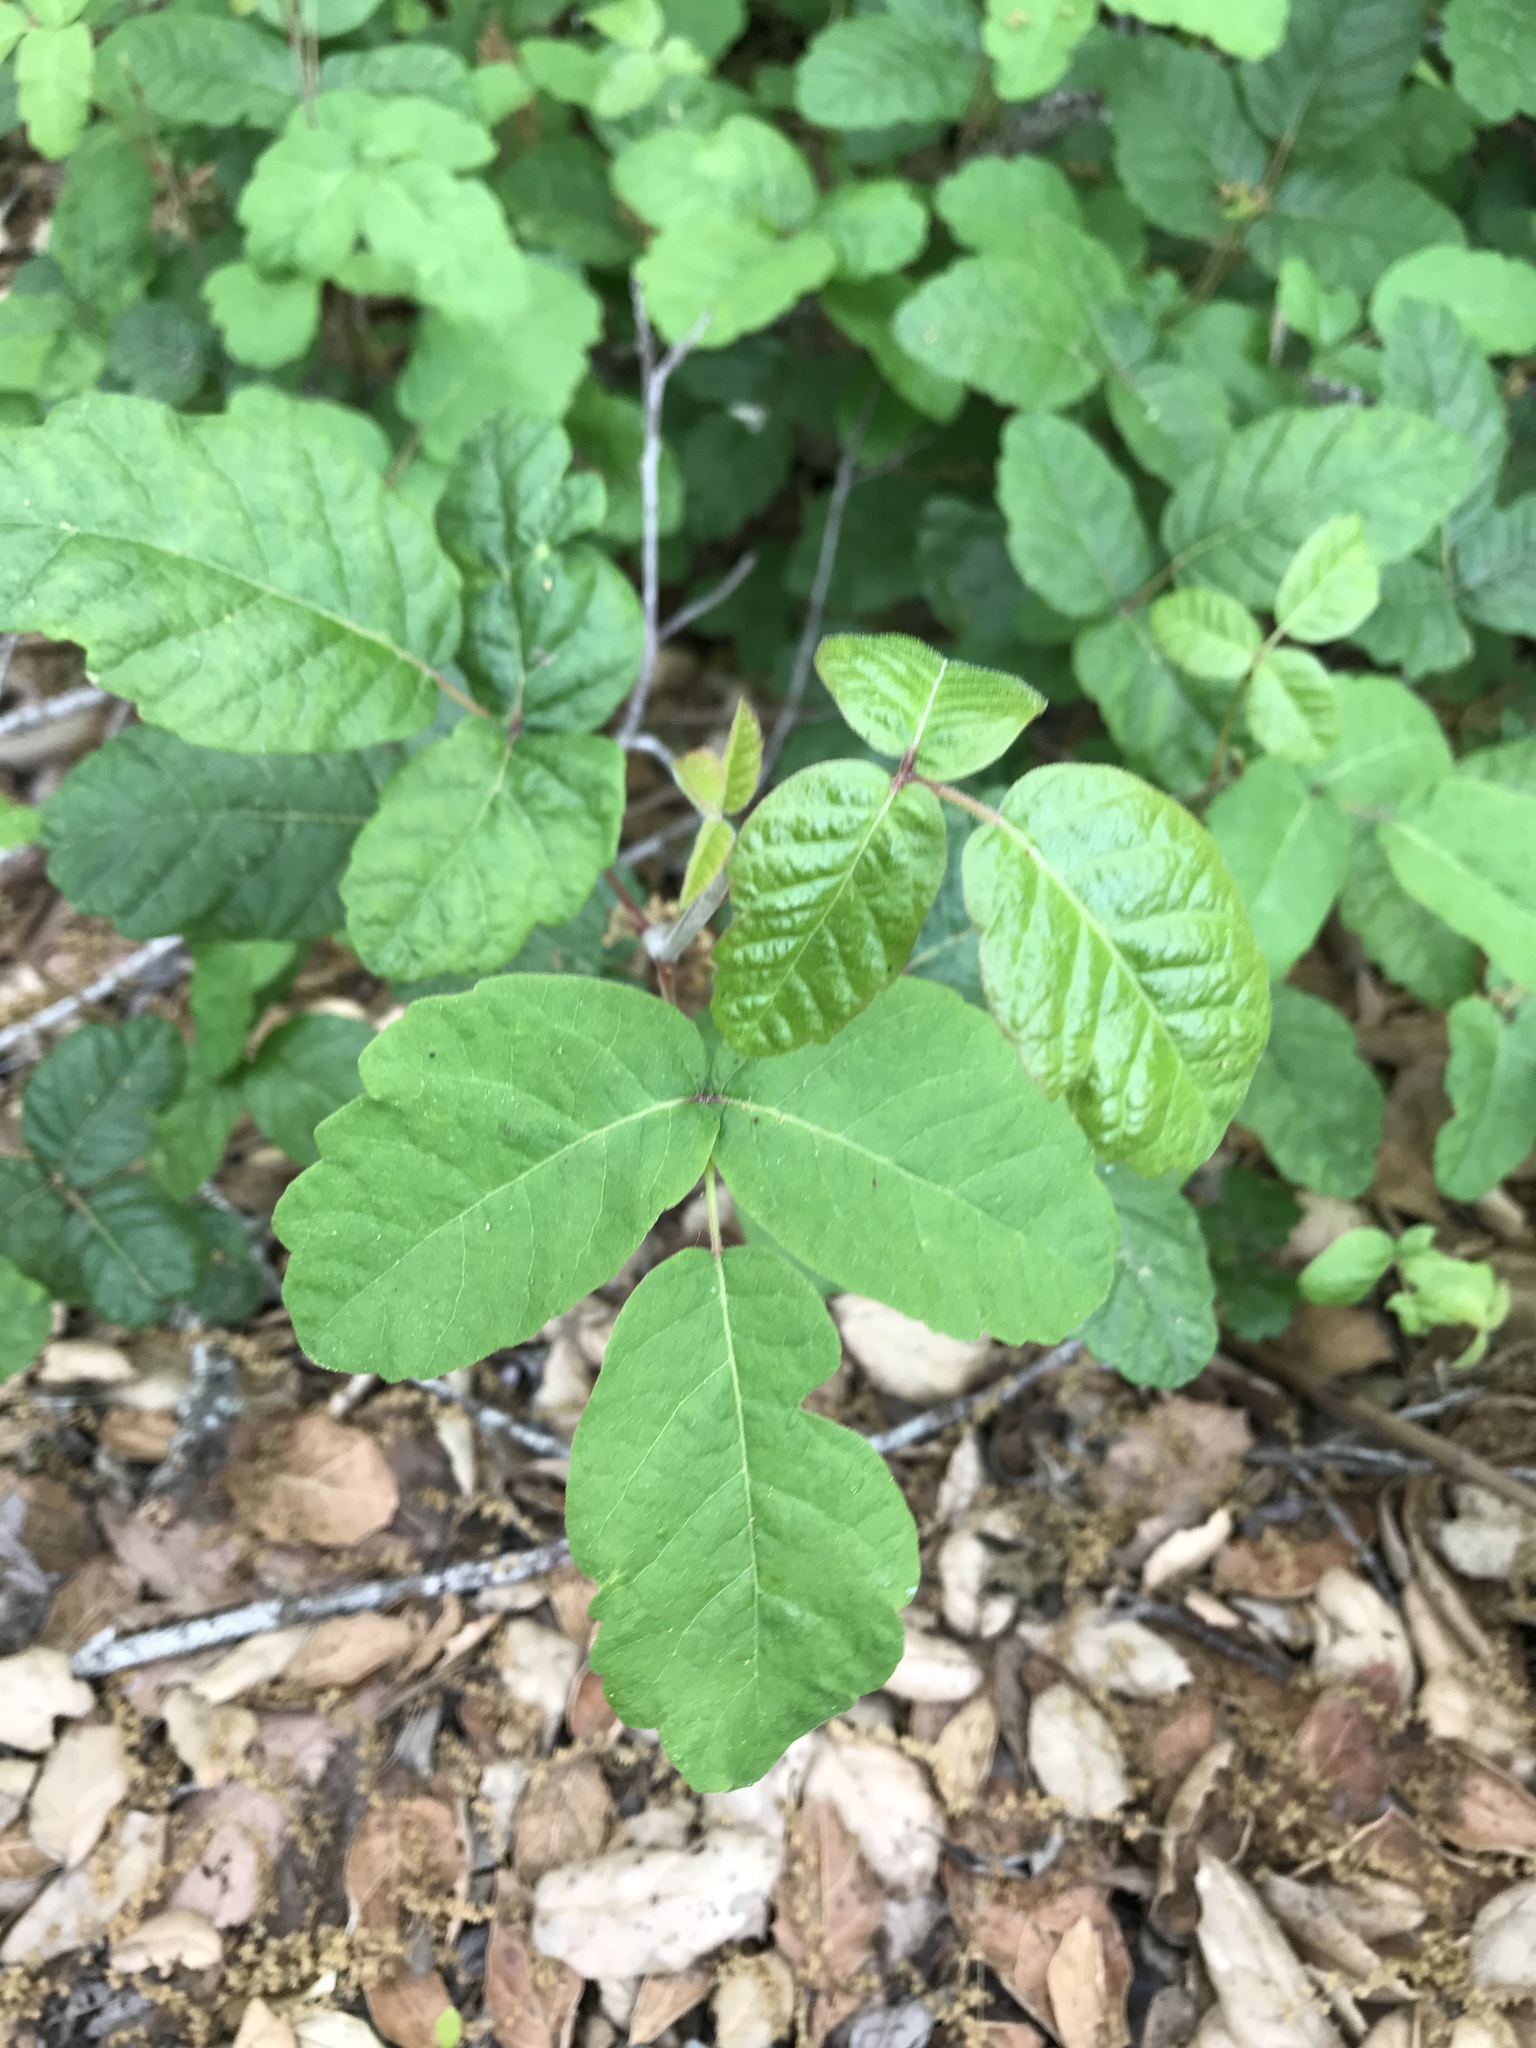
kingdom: Plantae
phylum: Tracheophyta
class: Magnoliopsida
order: Sapindales
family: Anacardiaceae
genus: Toxicodendron
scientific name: Toxicodendron diversilobum
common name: Pacific poison-oak
